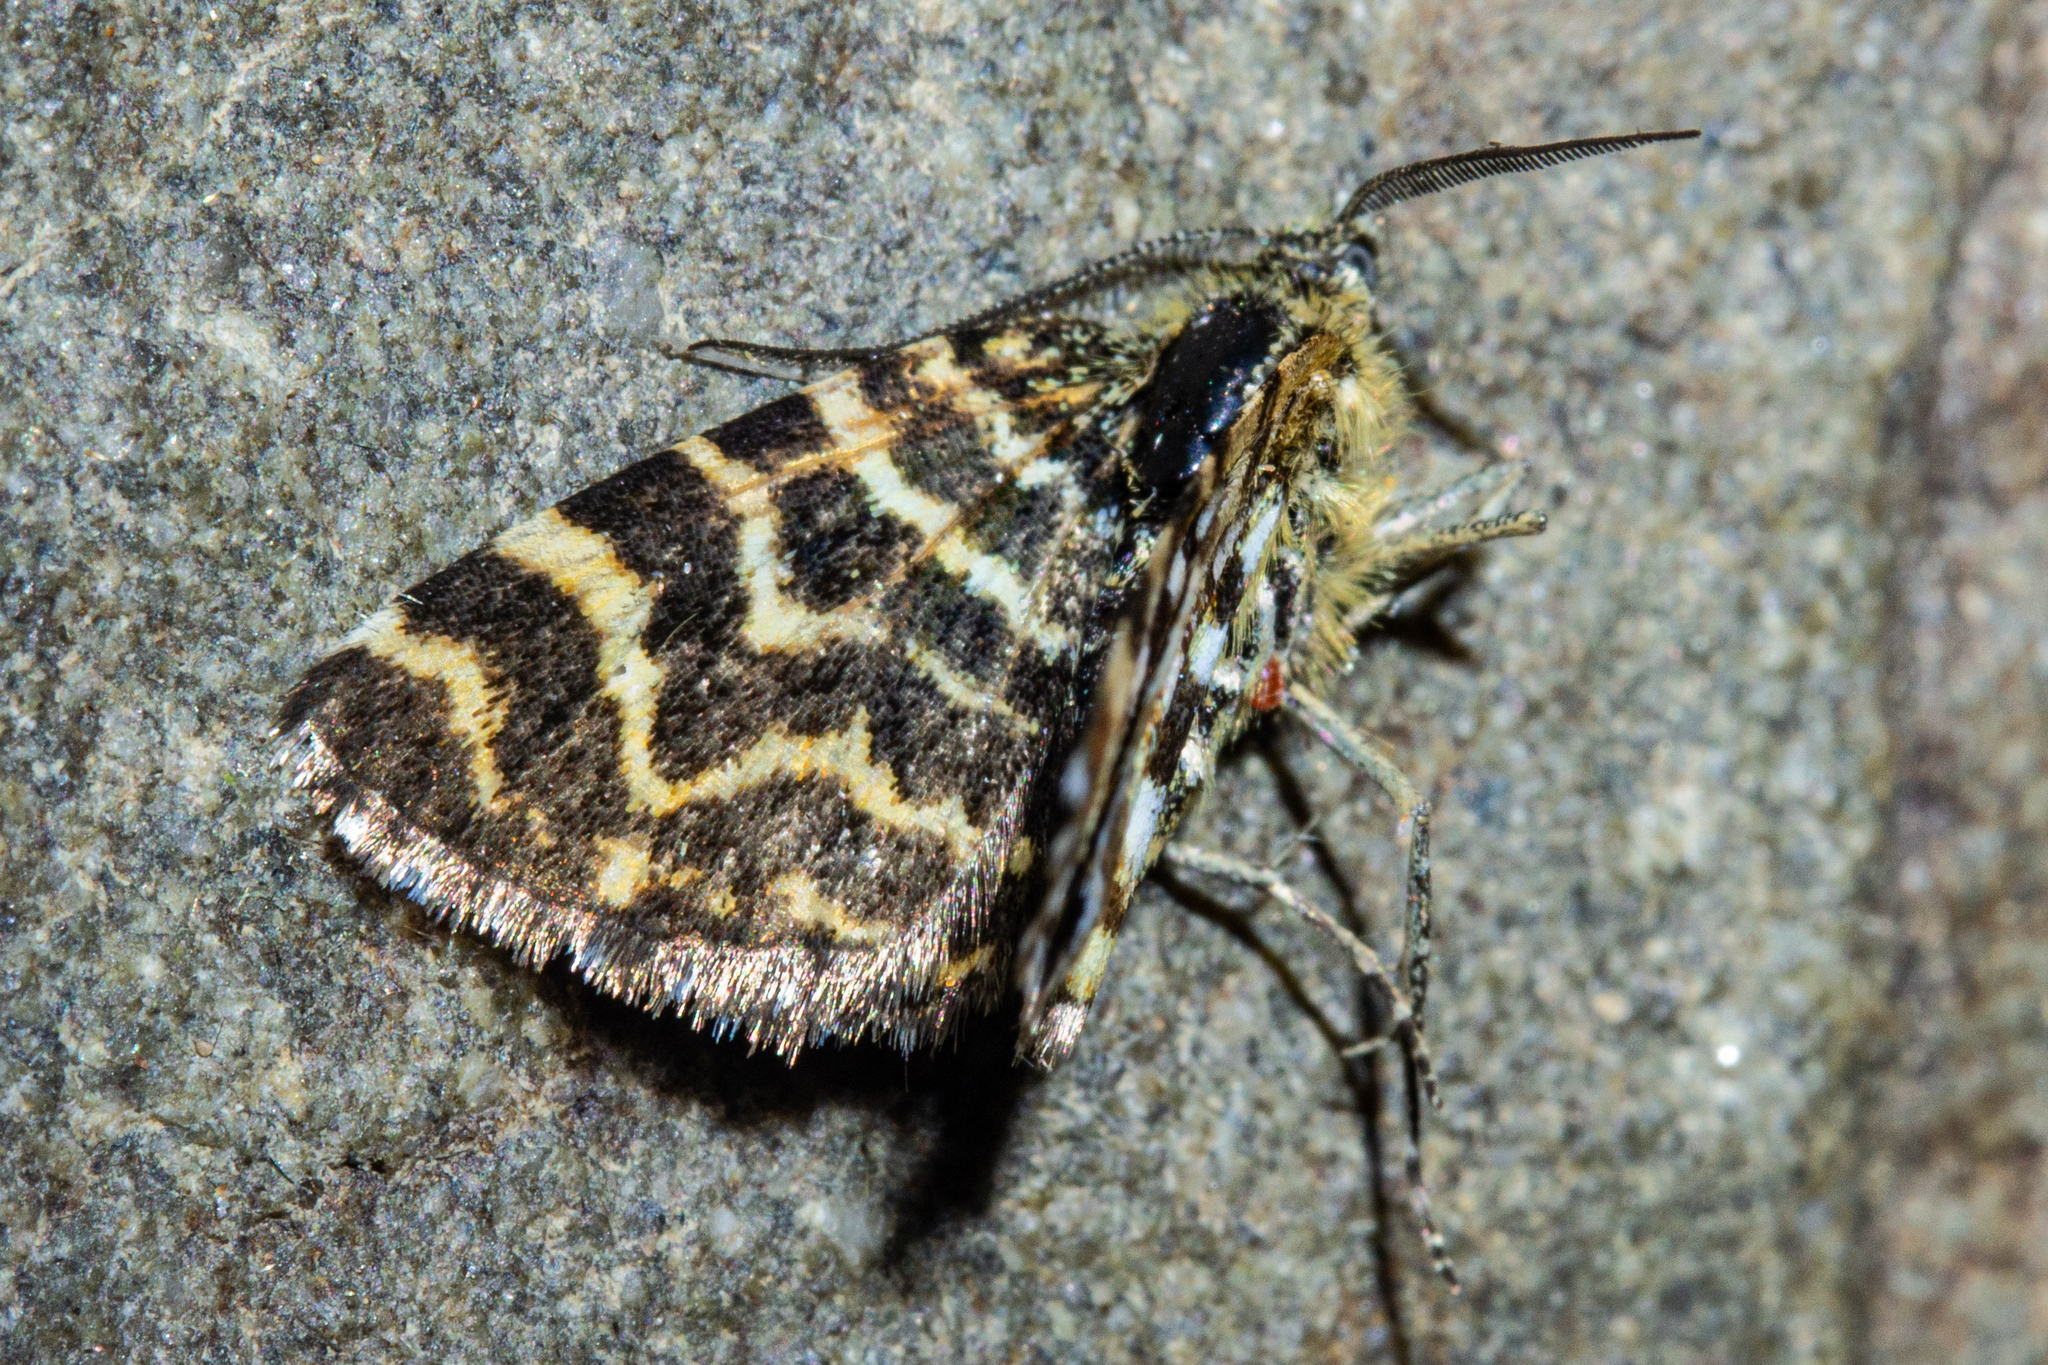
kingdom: Animalia
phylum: Arthropoda
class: Insecta
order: Lepidoptera
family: Geometridae
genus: Notoreas
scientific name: Notoreas galaxias
